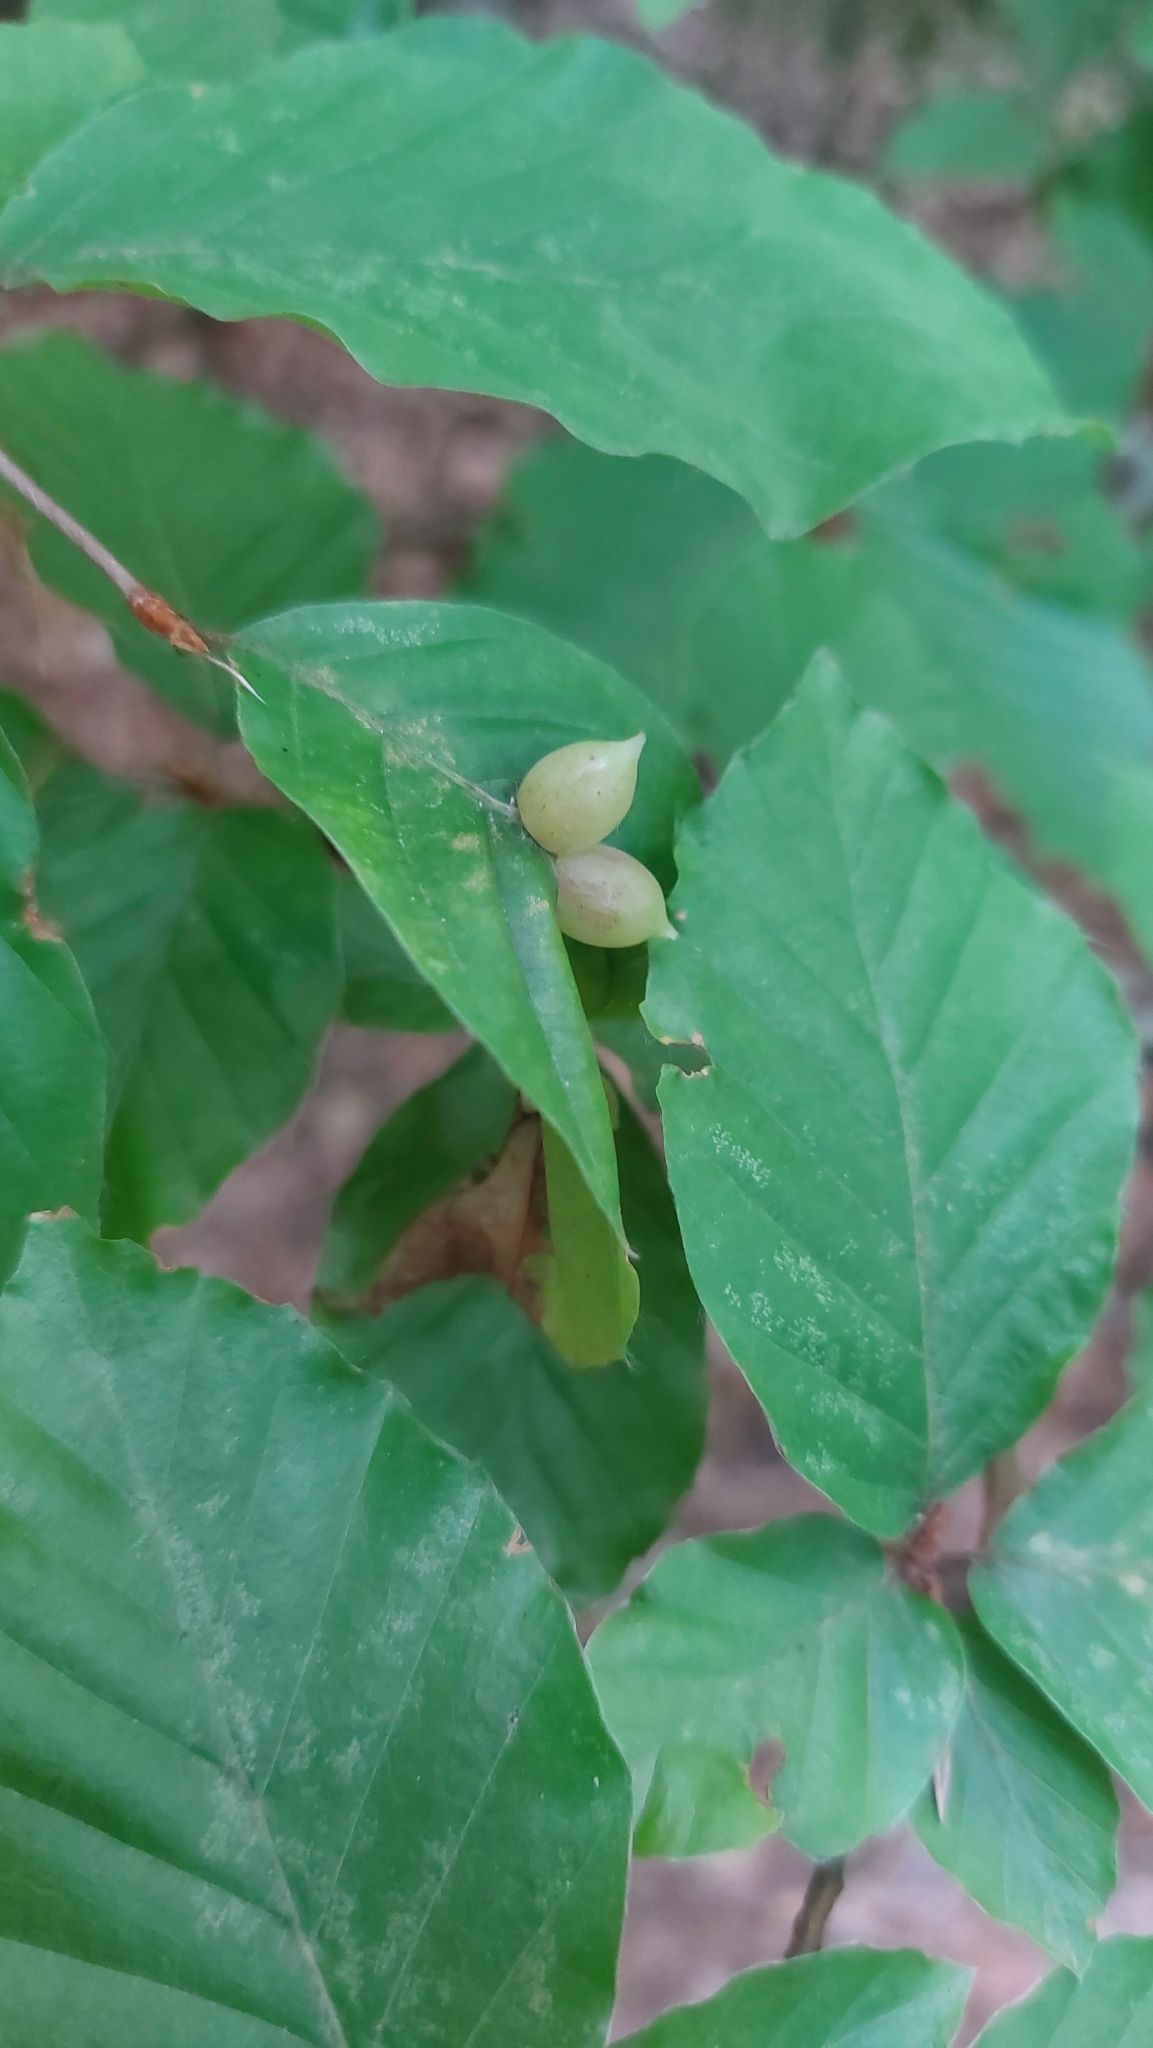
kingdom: Animalia
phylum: Arthropoda
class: Insecta
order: Diptera
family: Cecidomyiidae
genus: Mikiola
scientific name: Mikiola fagi
